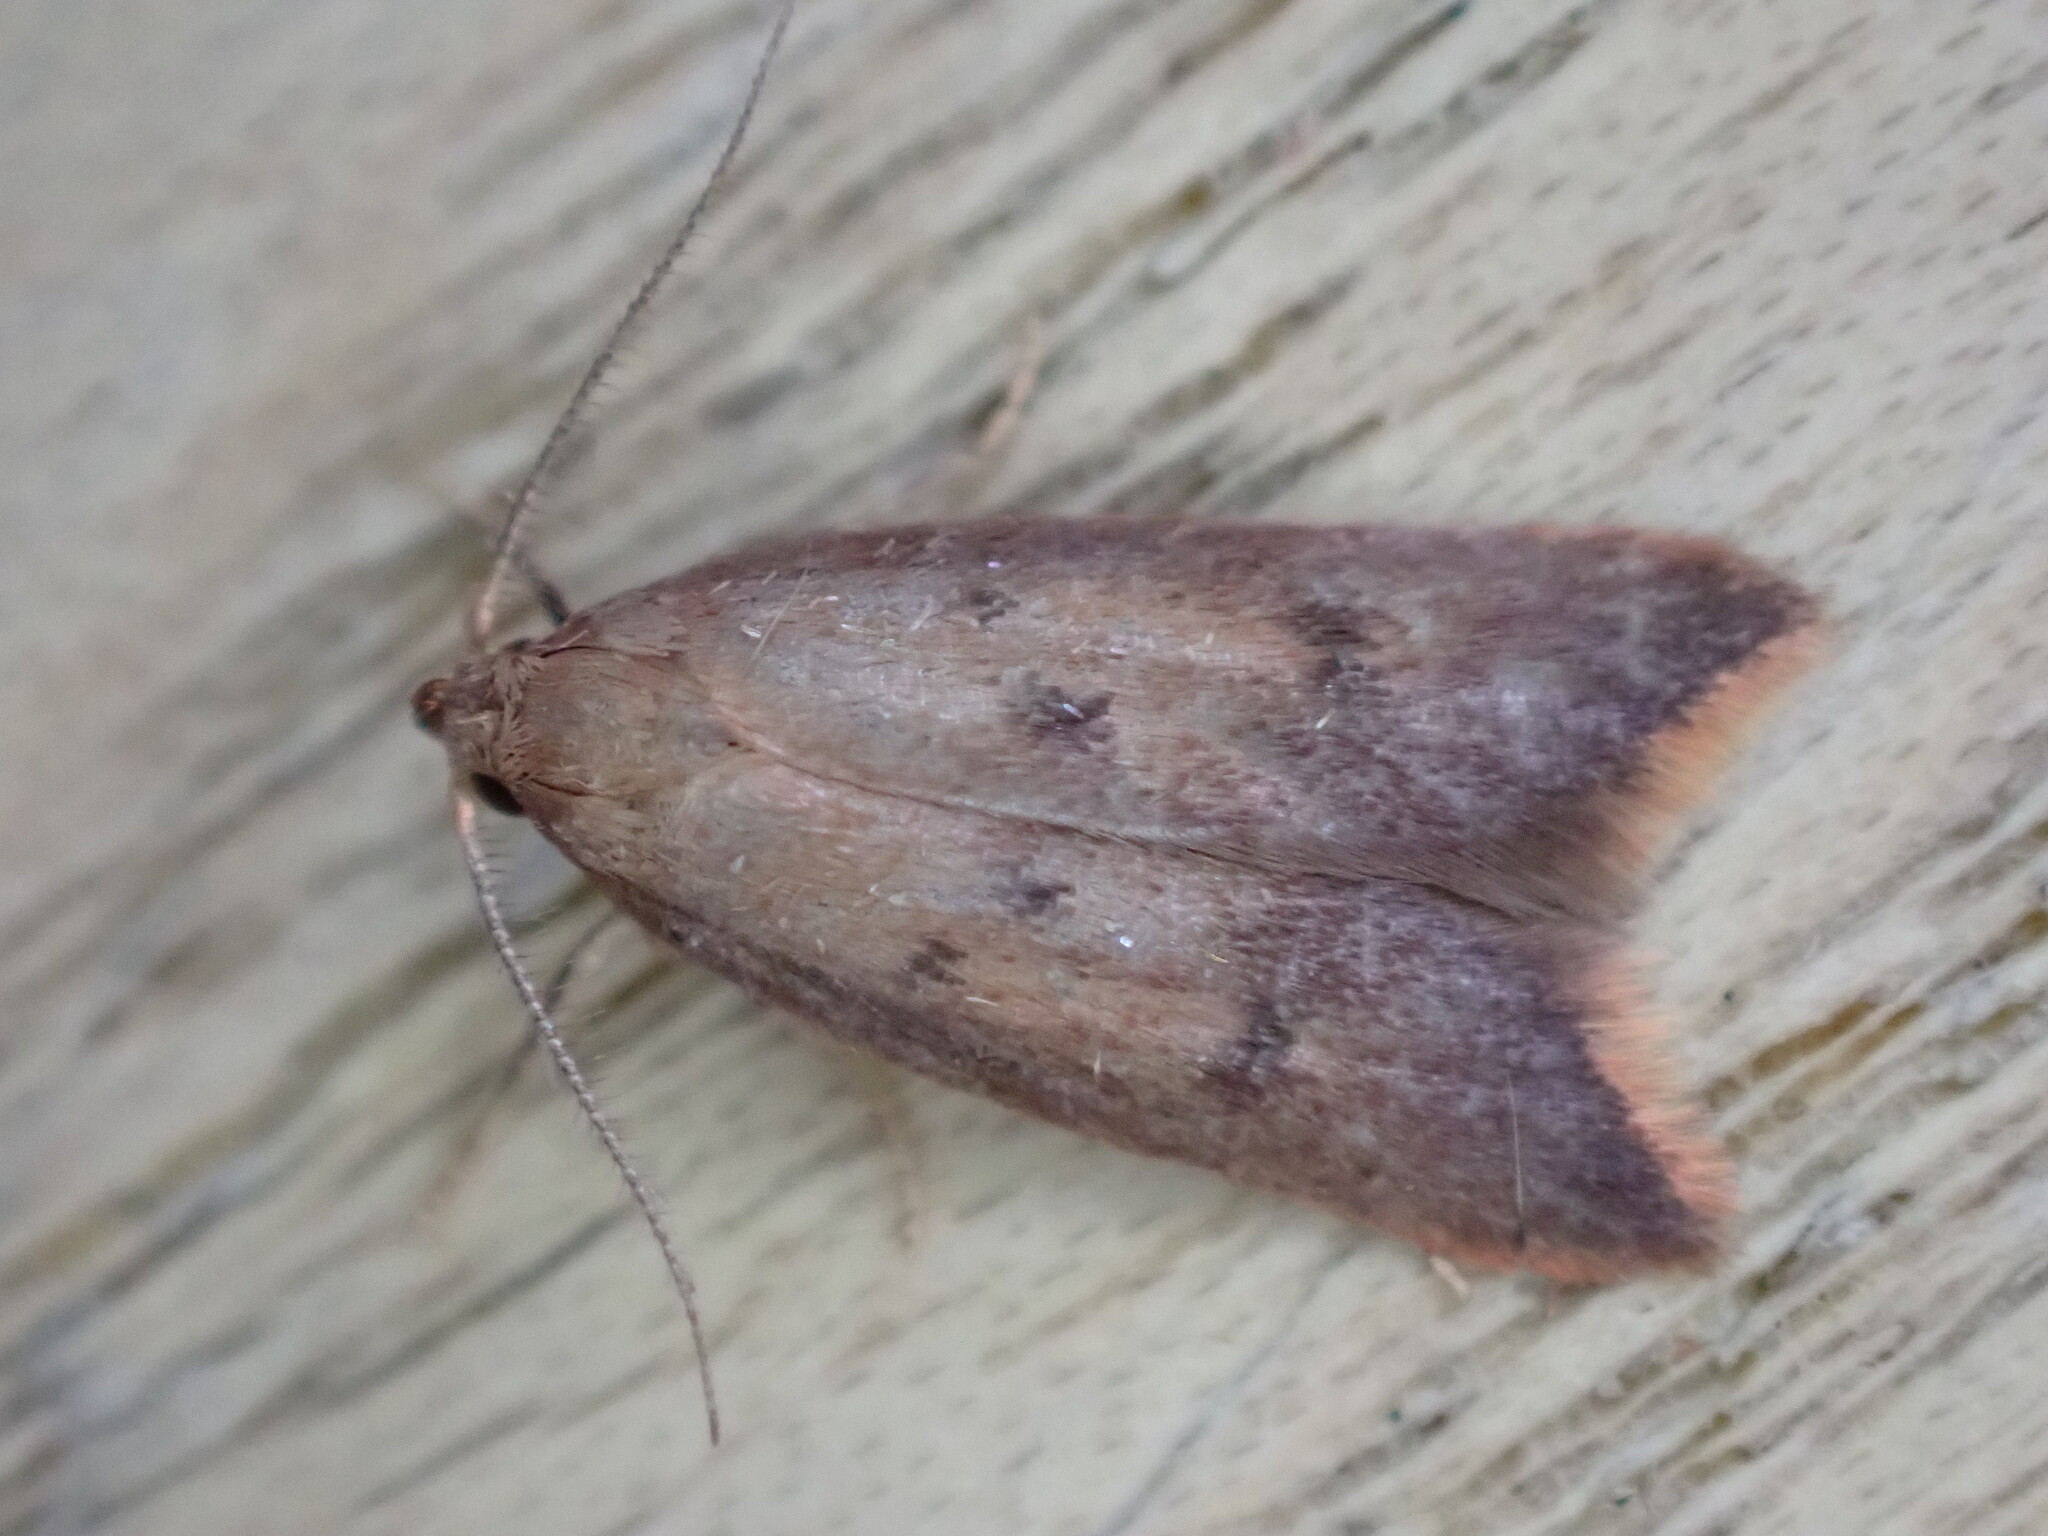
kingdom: Animalia
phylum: Arthropoda
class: Insecta
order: Lepidoptera
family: Oecophoridae
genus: Tachystola
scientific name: Tachystola acroxantha
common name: Ruddy streak
